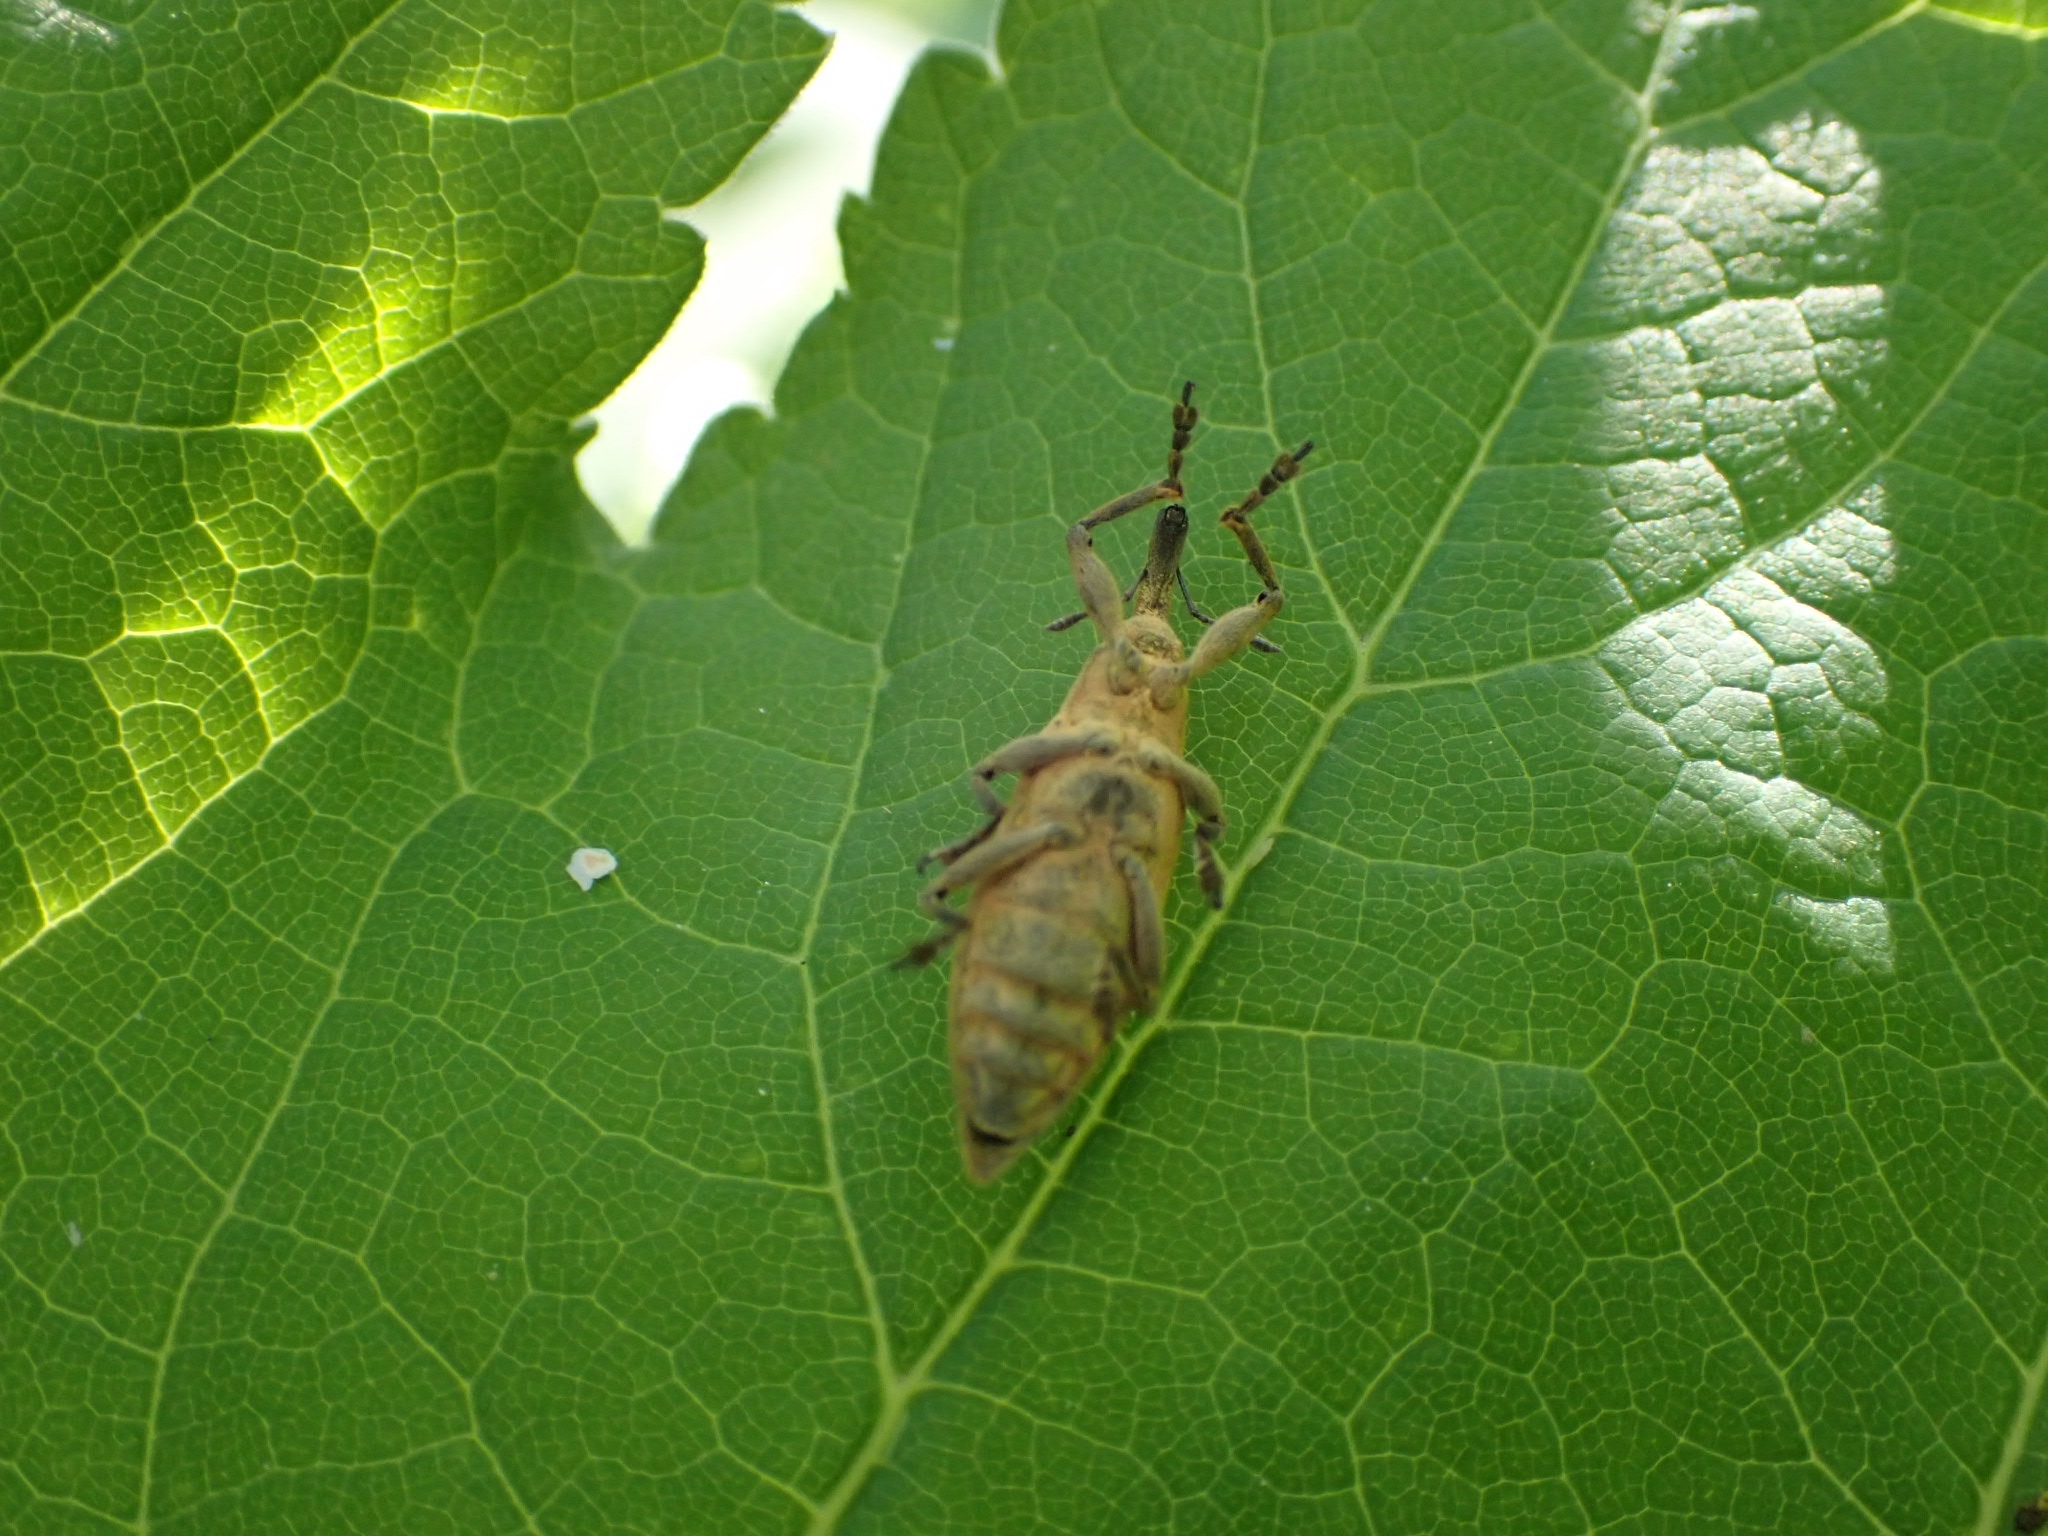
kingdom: Animalia
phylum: Arthropoda
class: Insecta
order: Coleoptera
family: Curculionidae
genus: Lixus
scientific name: Lixus iridis
